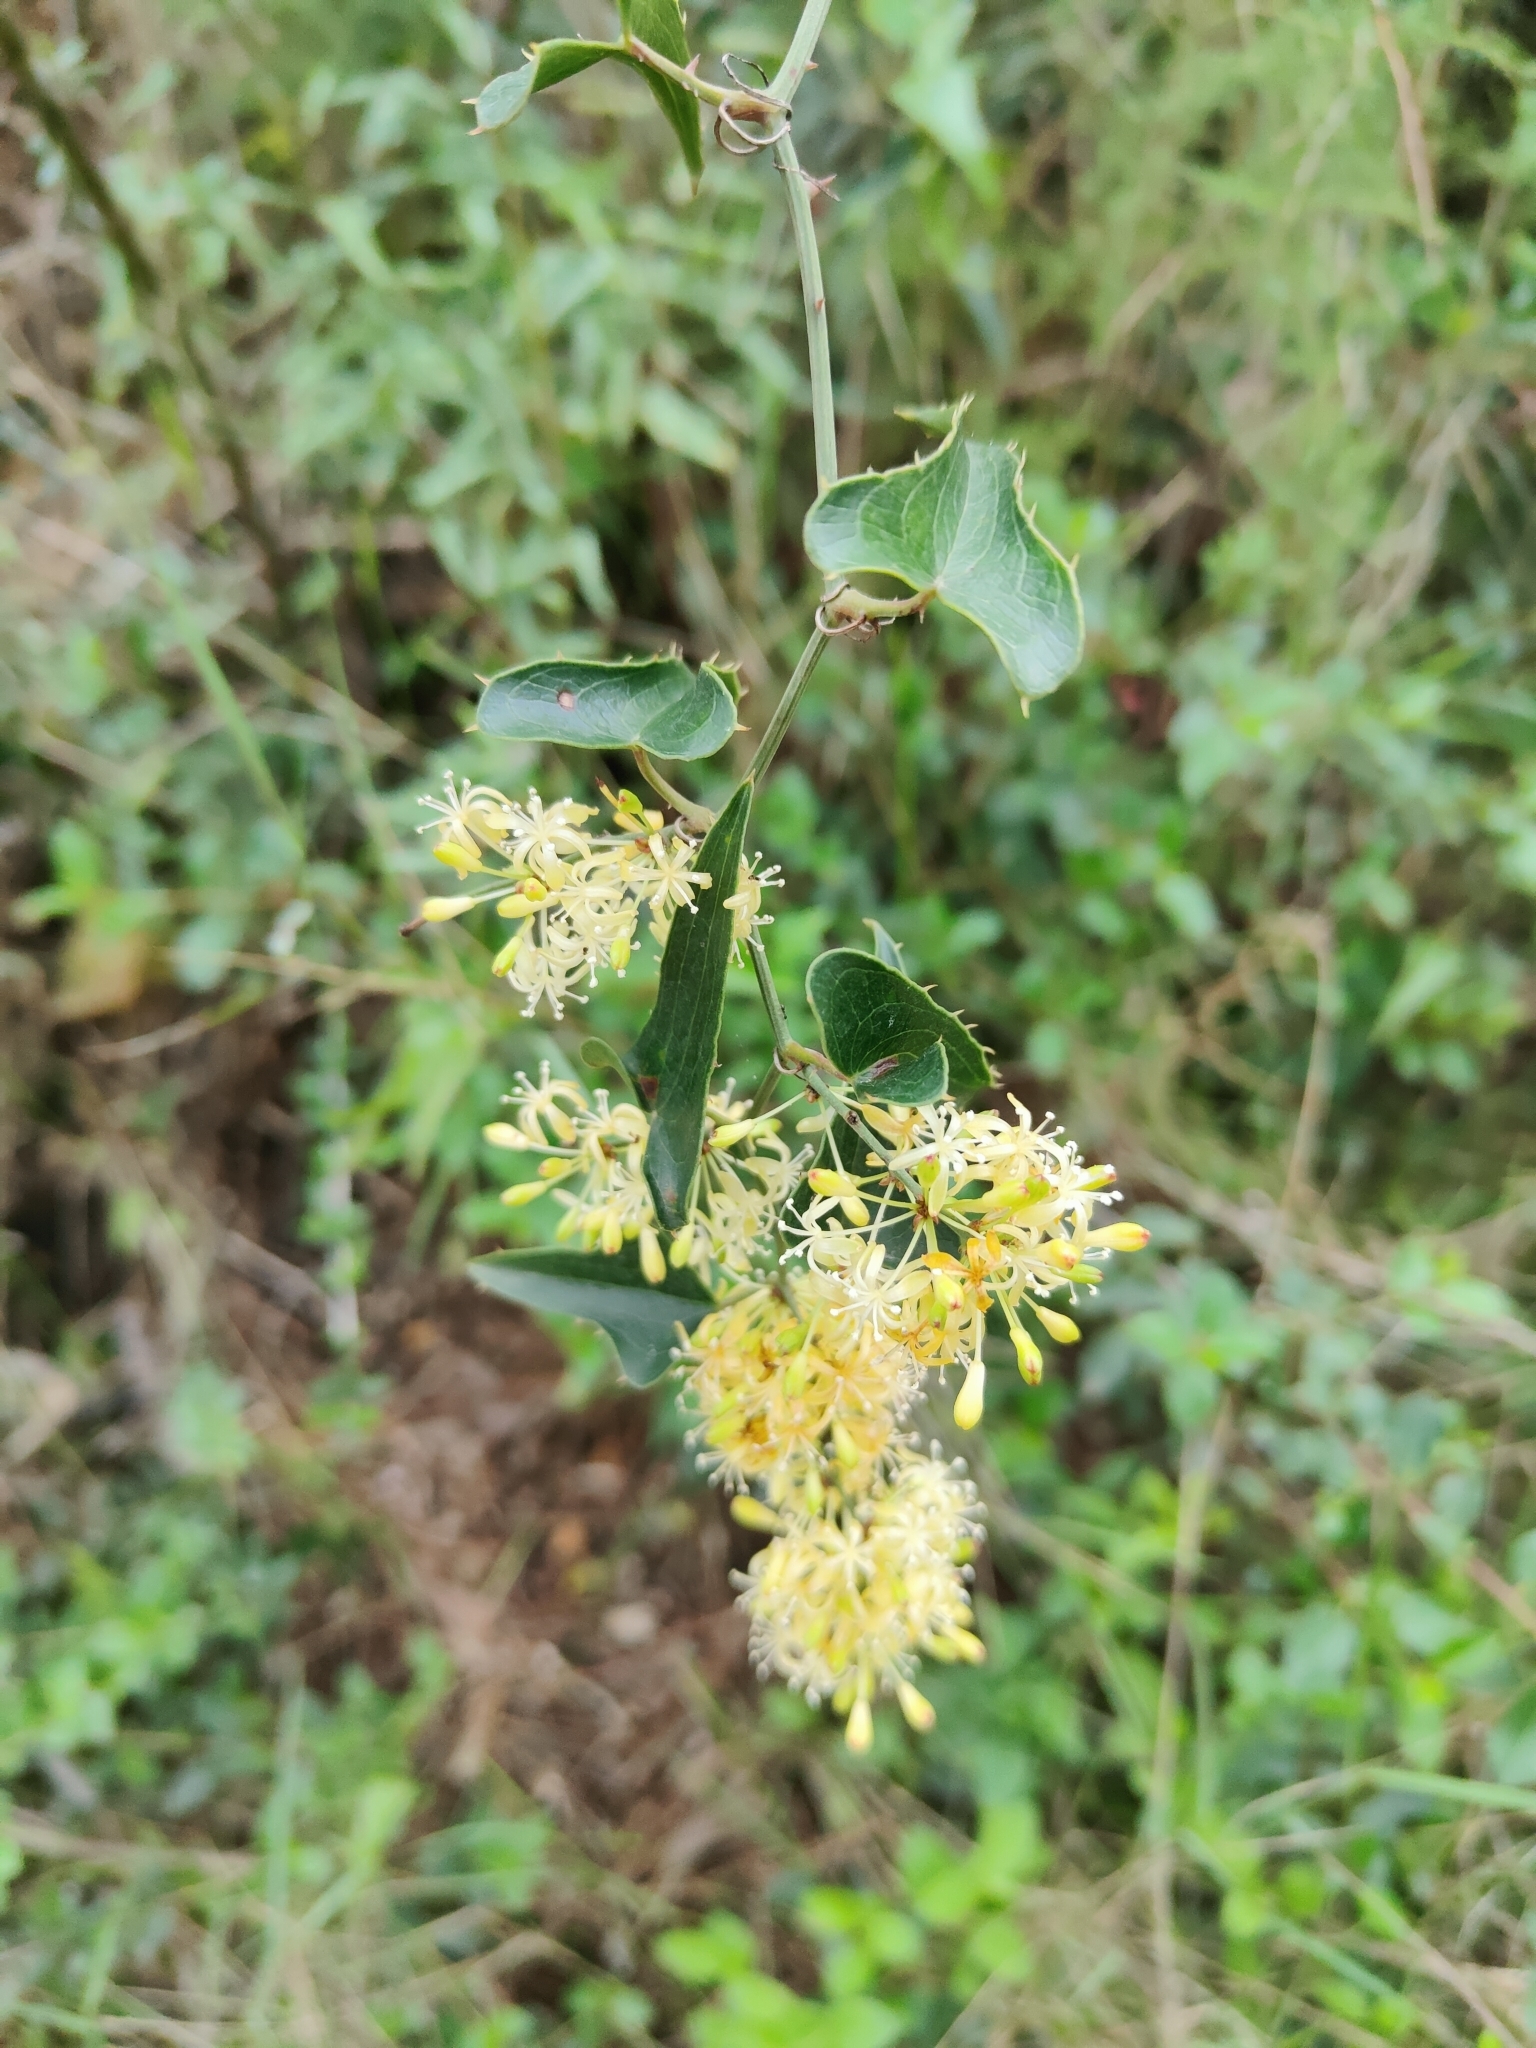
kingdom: Plantae
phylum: Tracheophyta
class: Liliopsida
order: Liliales
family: Smilacaceae
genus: Smilax
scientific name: Smilax aspera
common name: Common smilax
